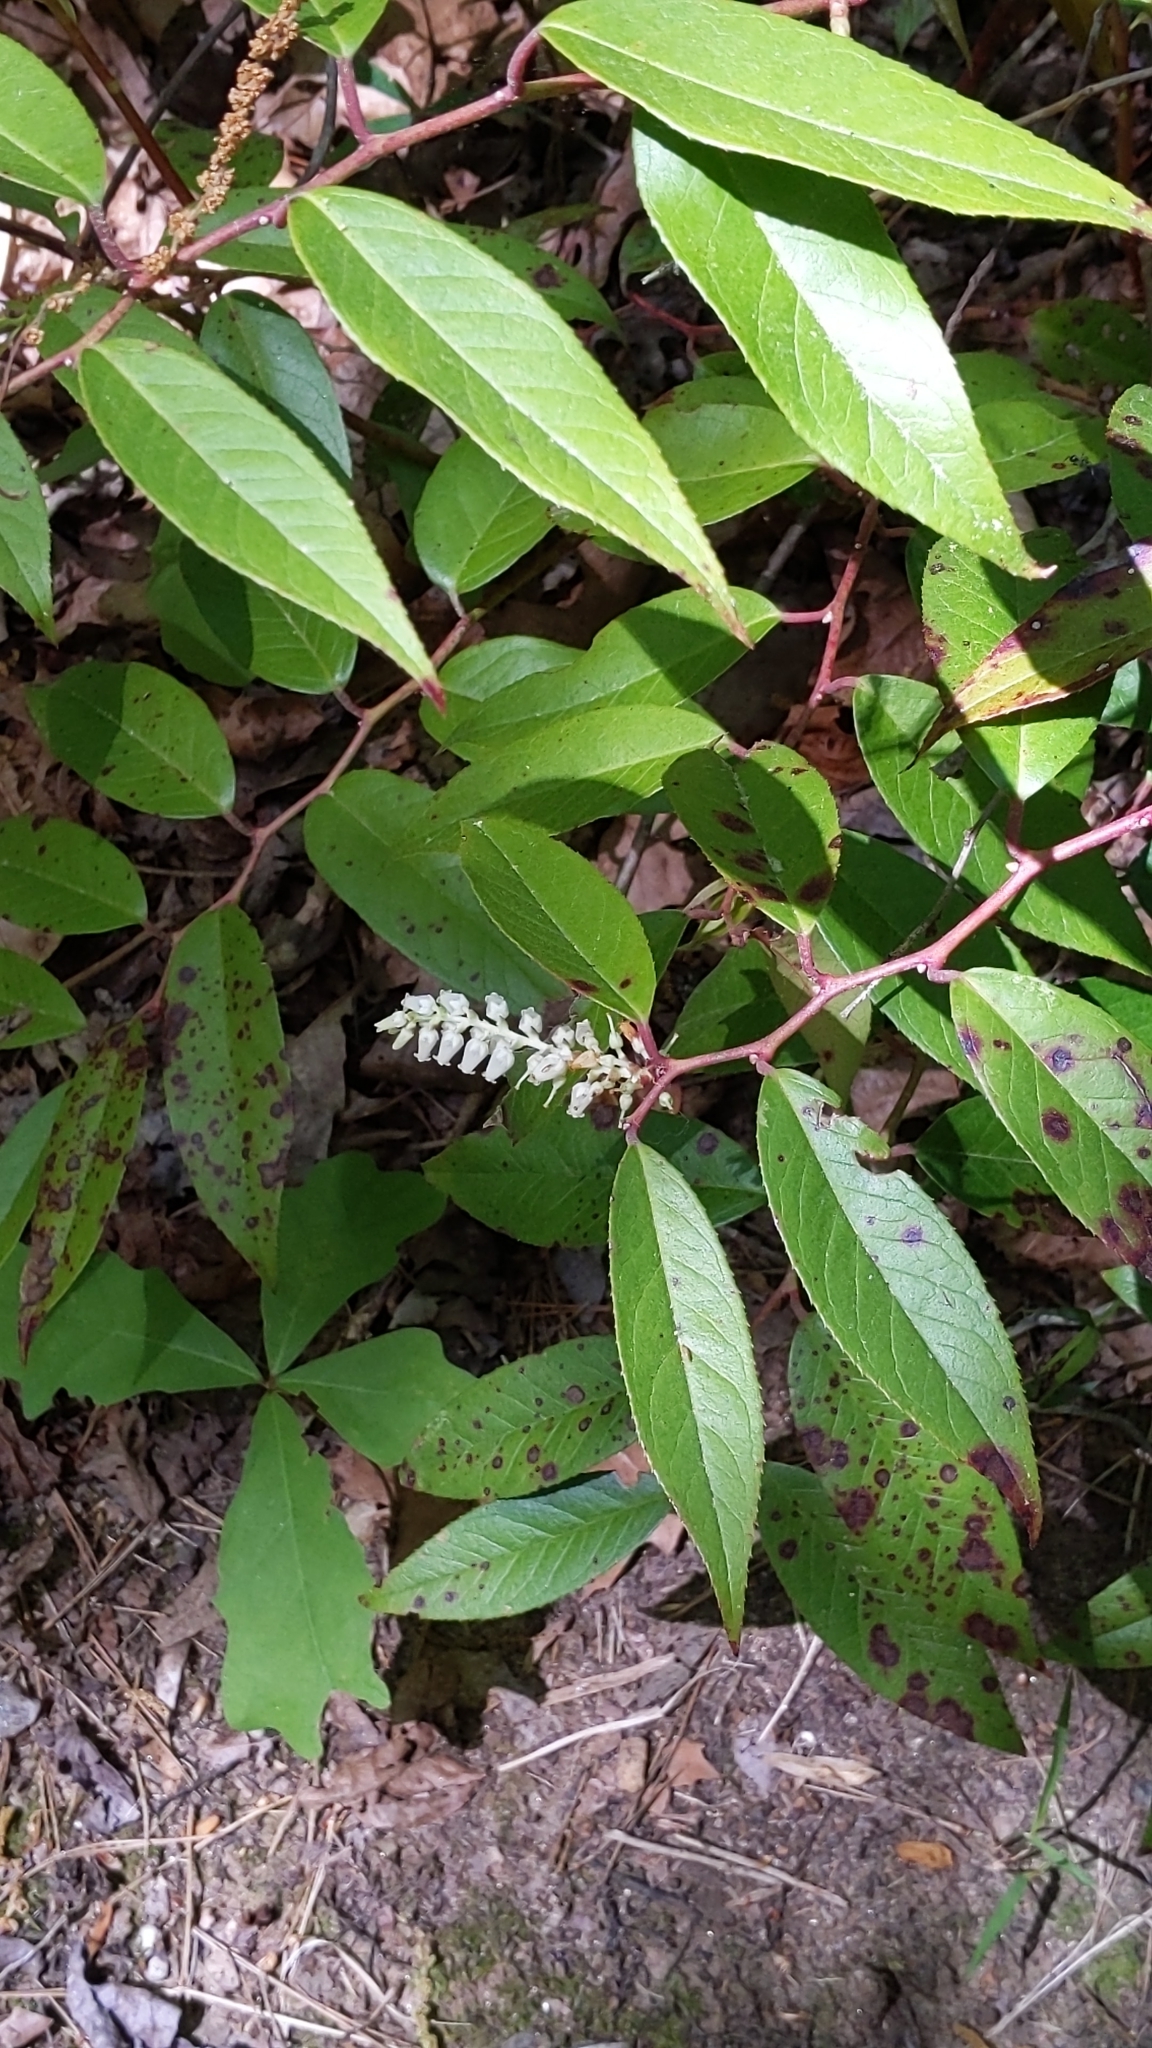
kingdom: Plantae
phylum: Tracheophyta
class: Magnoliopsida
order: Ericales
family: Ericaceae
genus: Leucothoe
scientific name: Leucothoe fontanesiana
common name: Fetterbush
